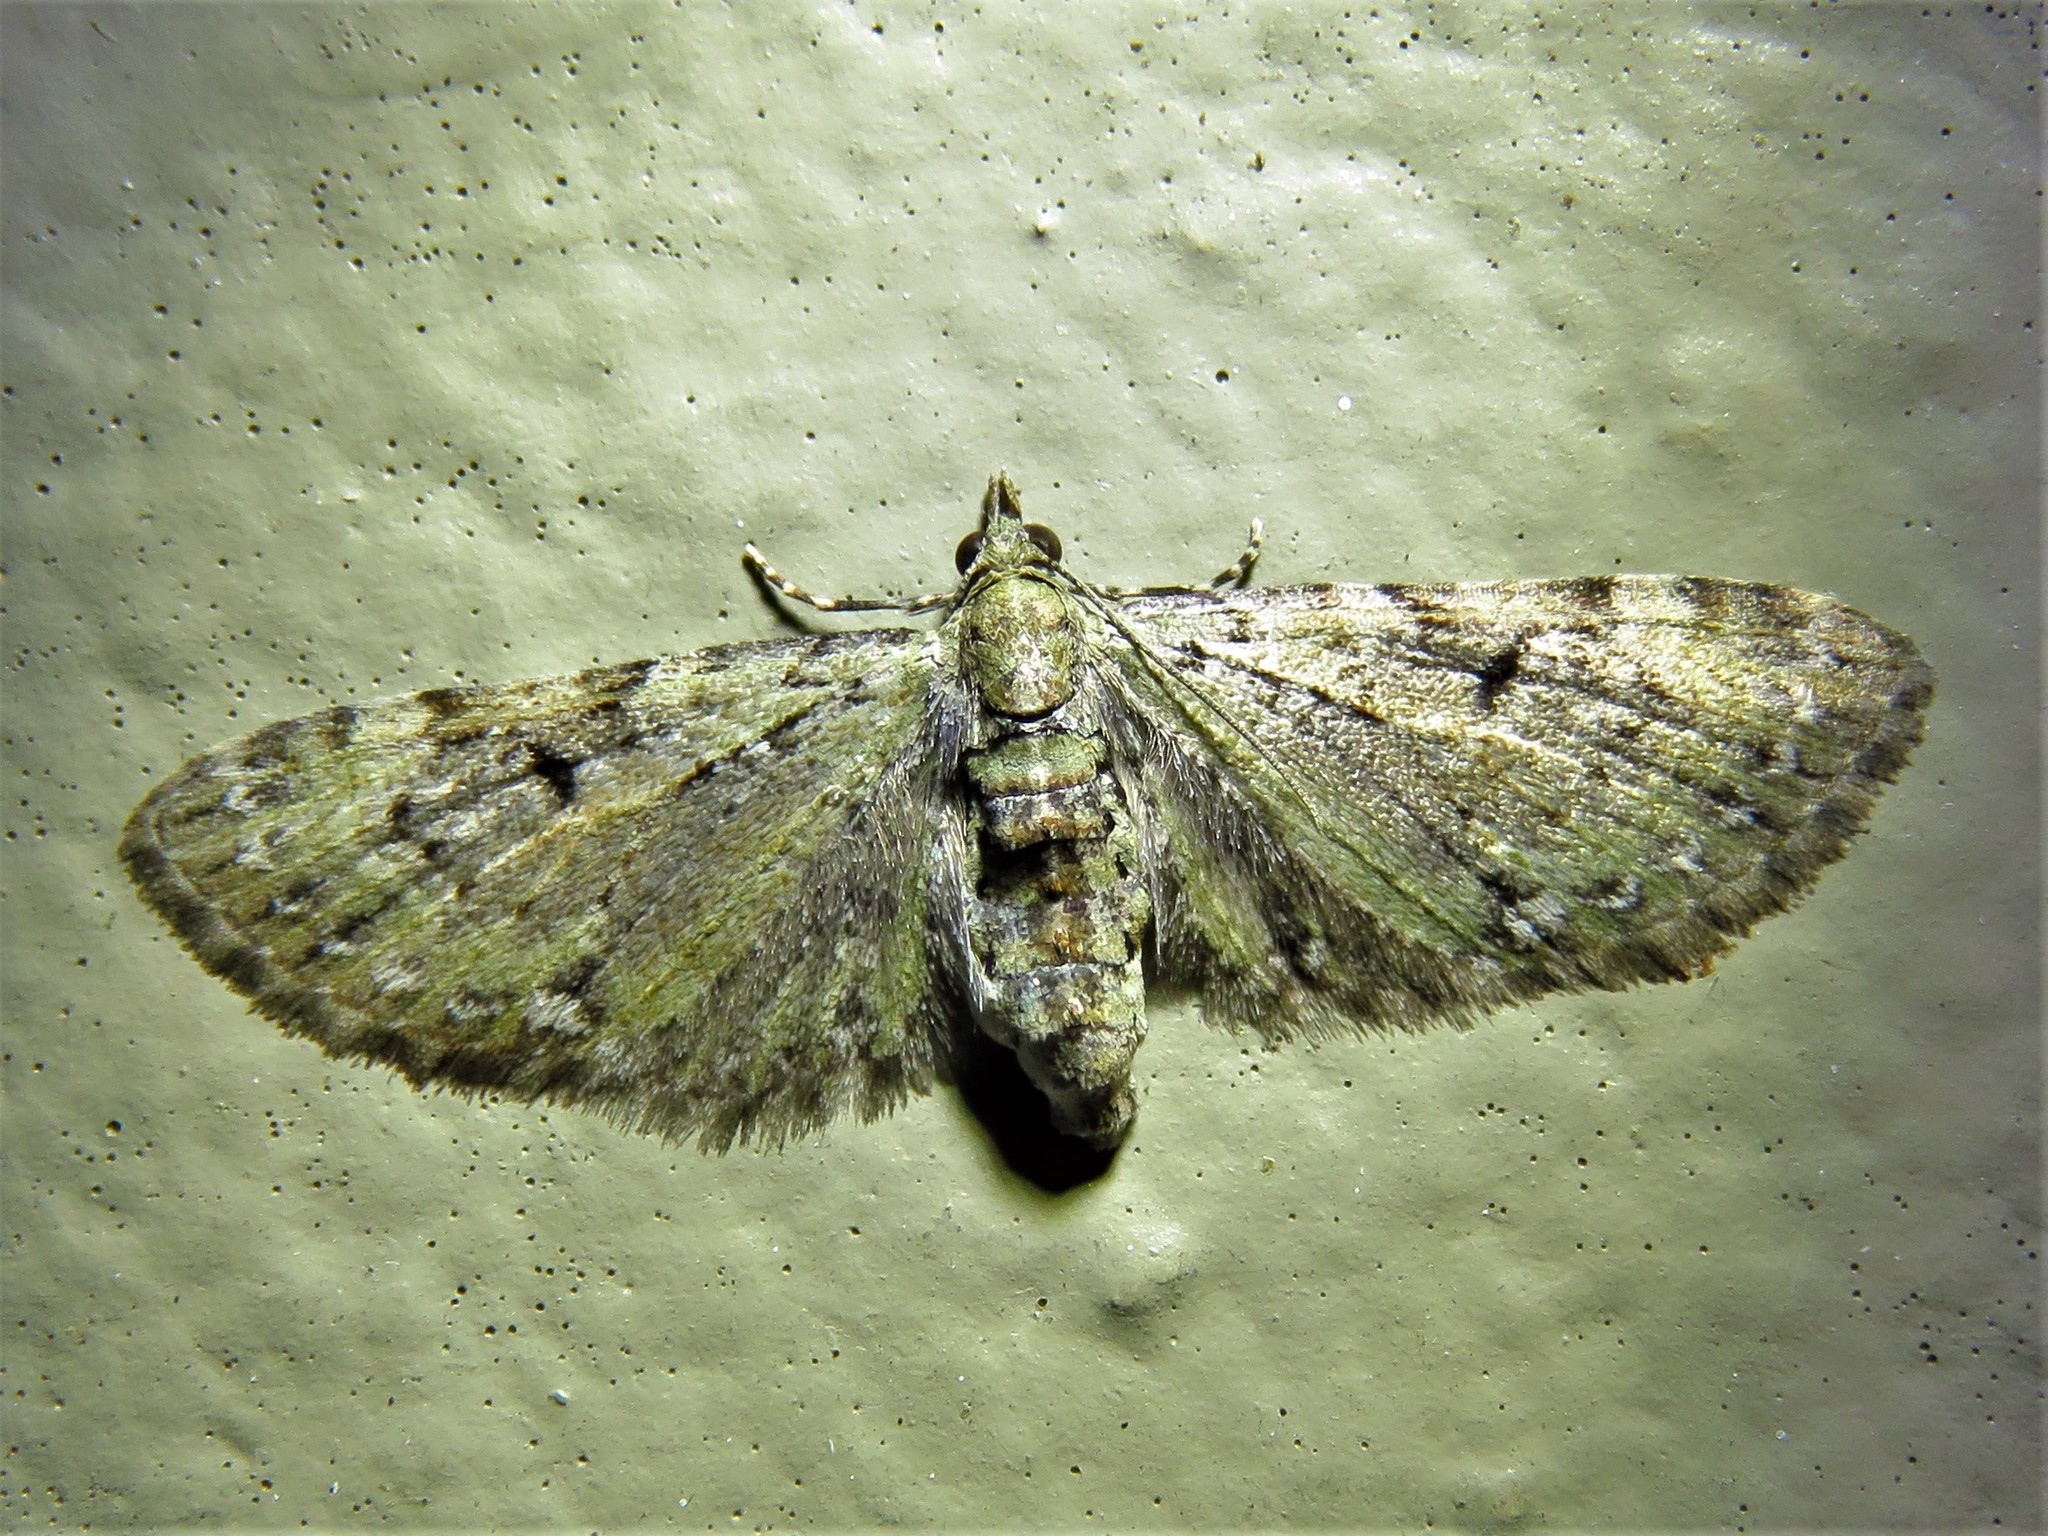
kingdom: Animalia
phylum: Arthropoda
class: Insecta
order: Lepidoptera
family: Geometridae
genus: Eupithecia
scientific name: Eupithecia miserulata
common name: Common eupithecia
